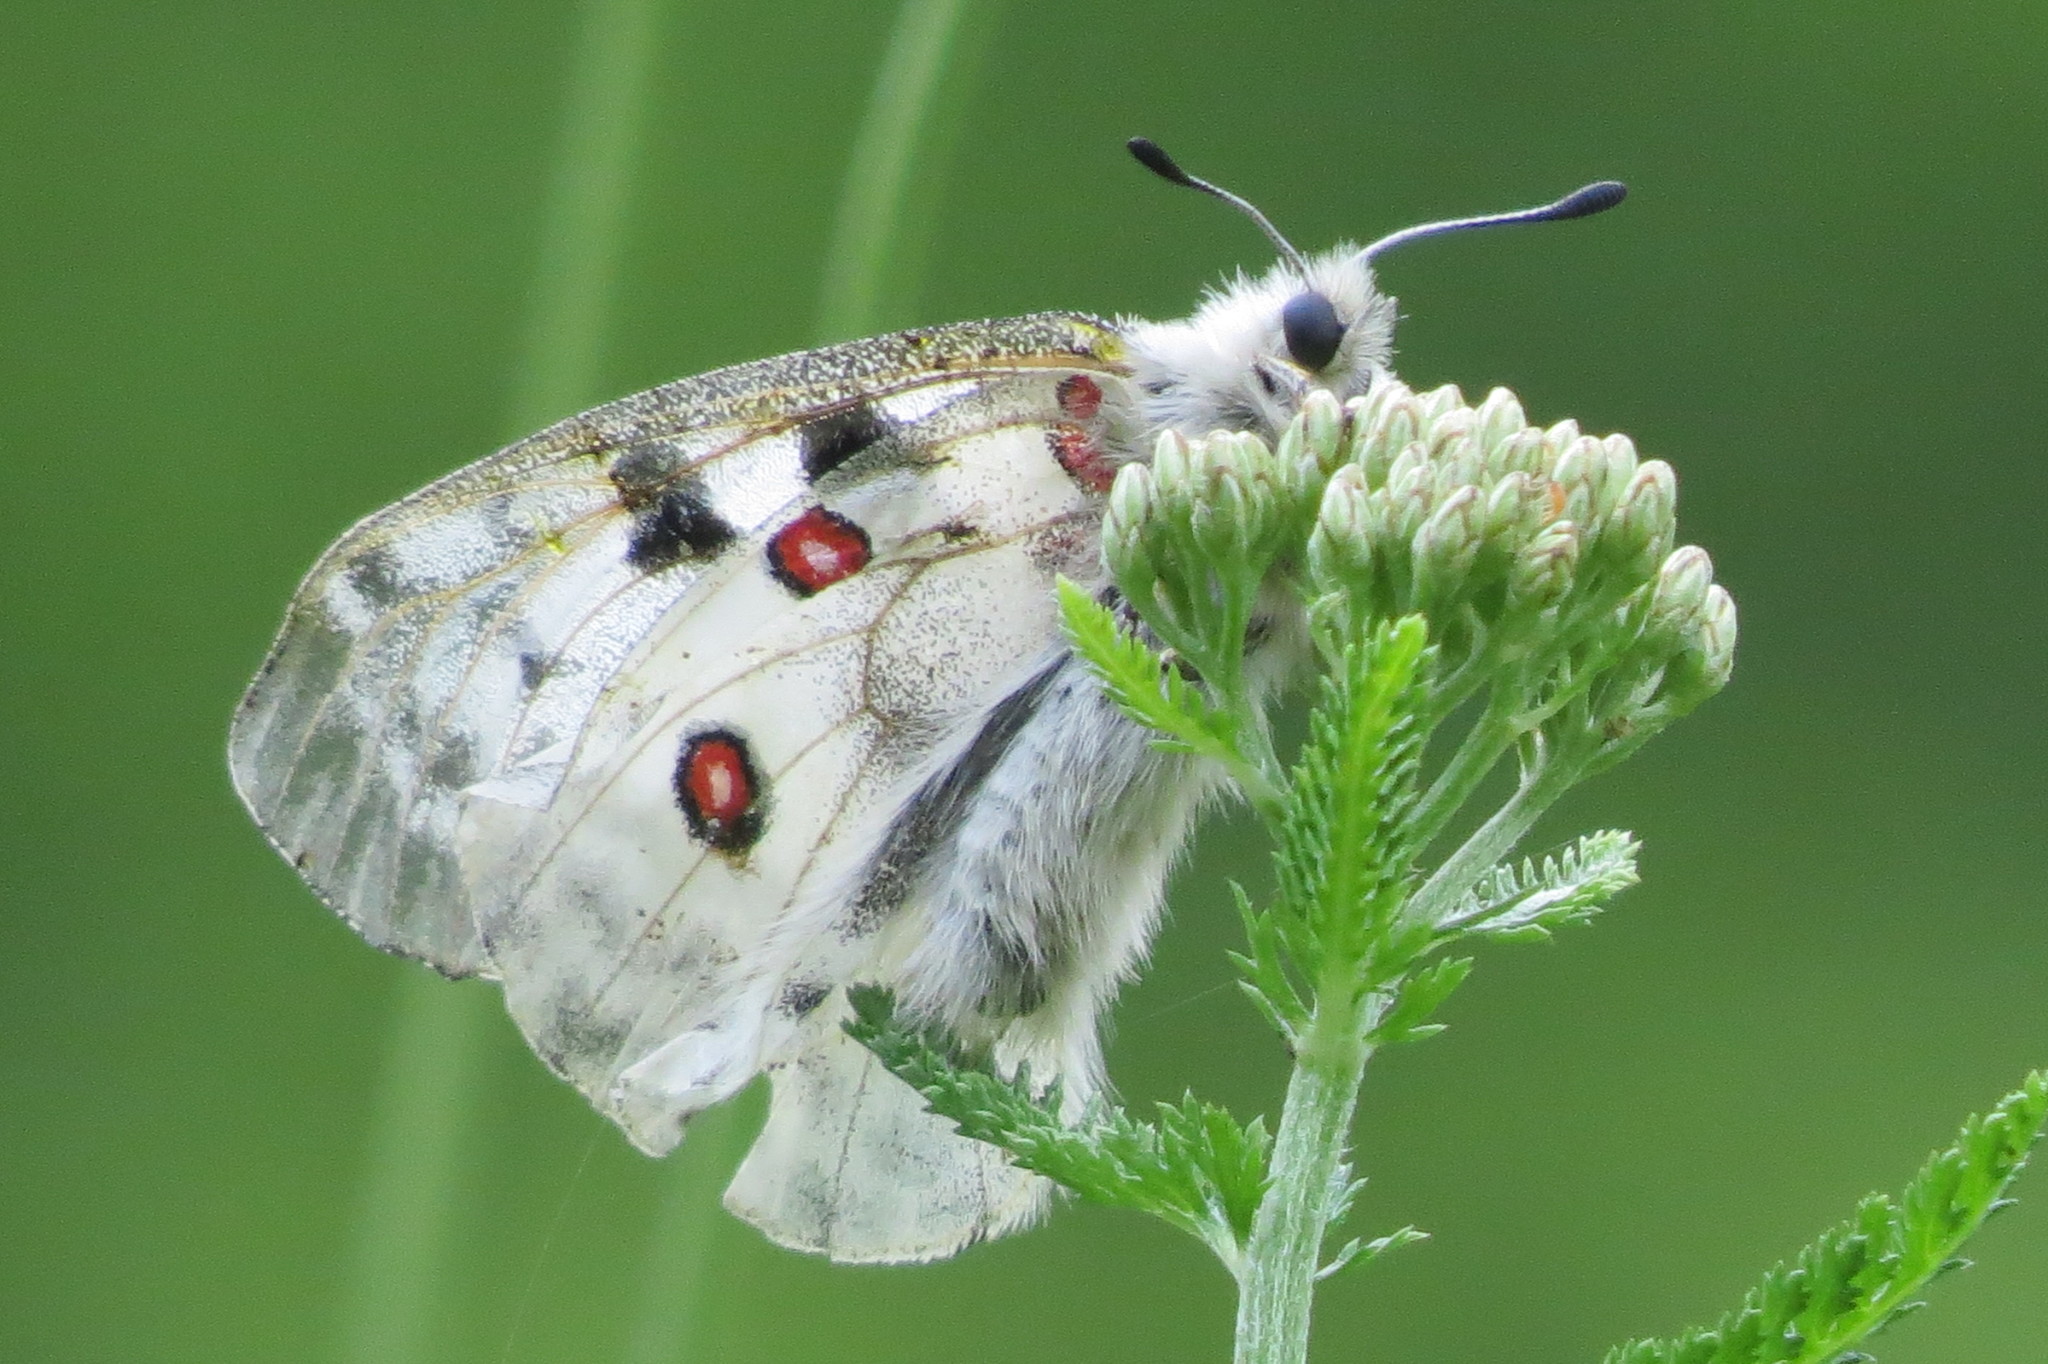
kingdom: Animalia
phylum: Arthropoda
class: Insecta
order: Lepidoptera
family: Papilionidae
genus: Parnassius
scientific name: Parnassius apollo
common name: Apollo
